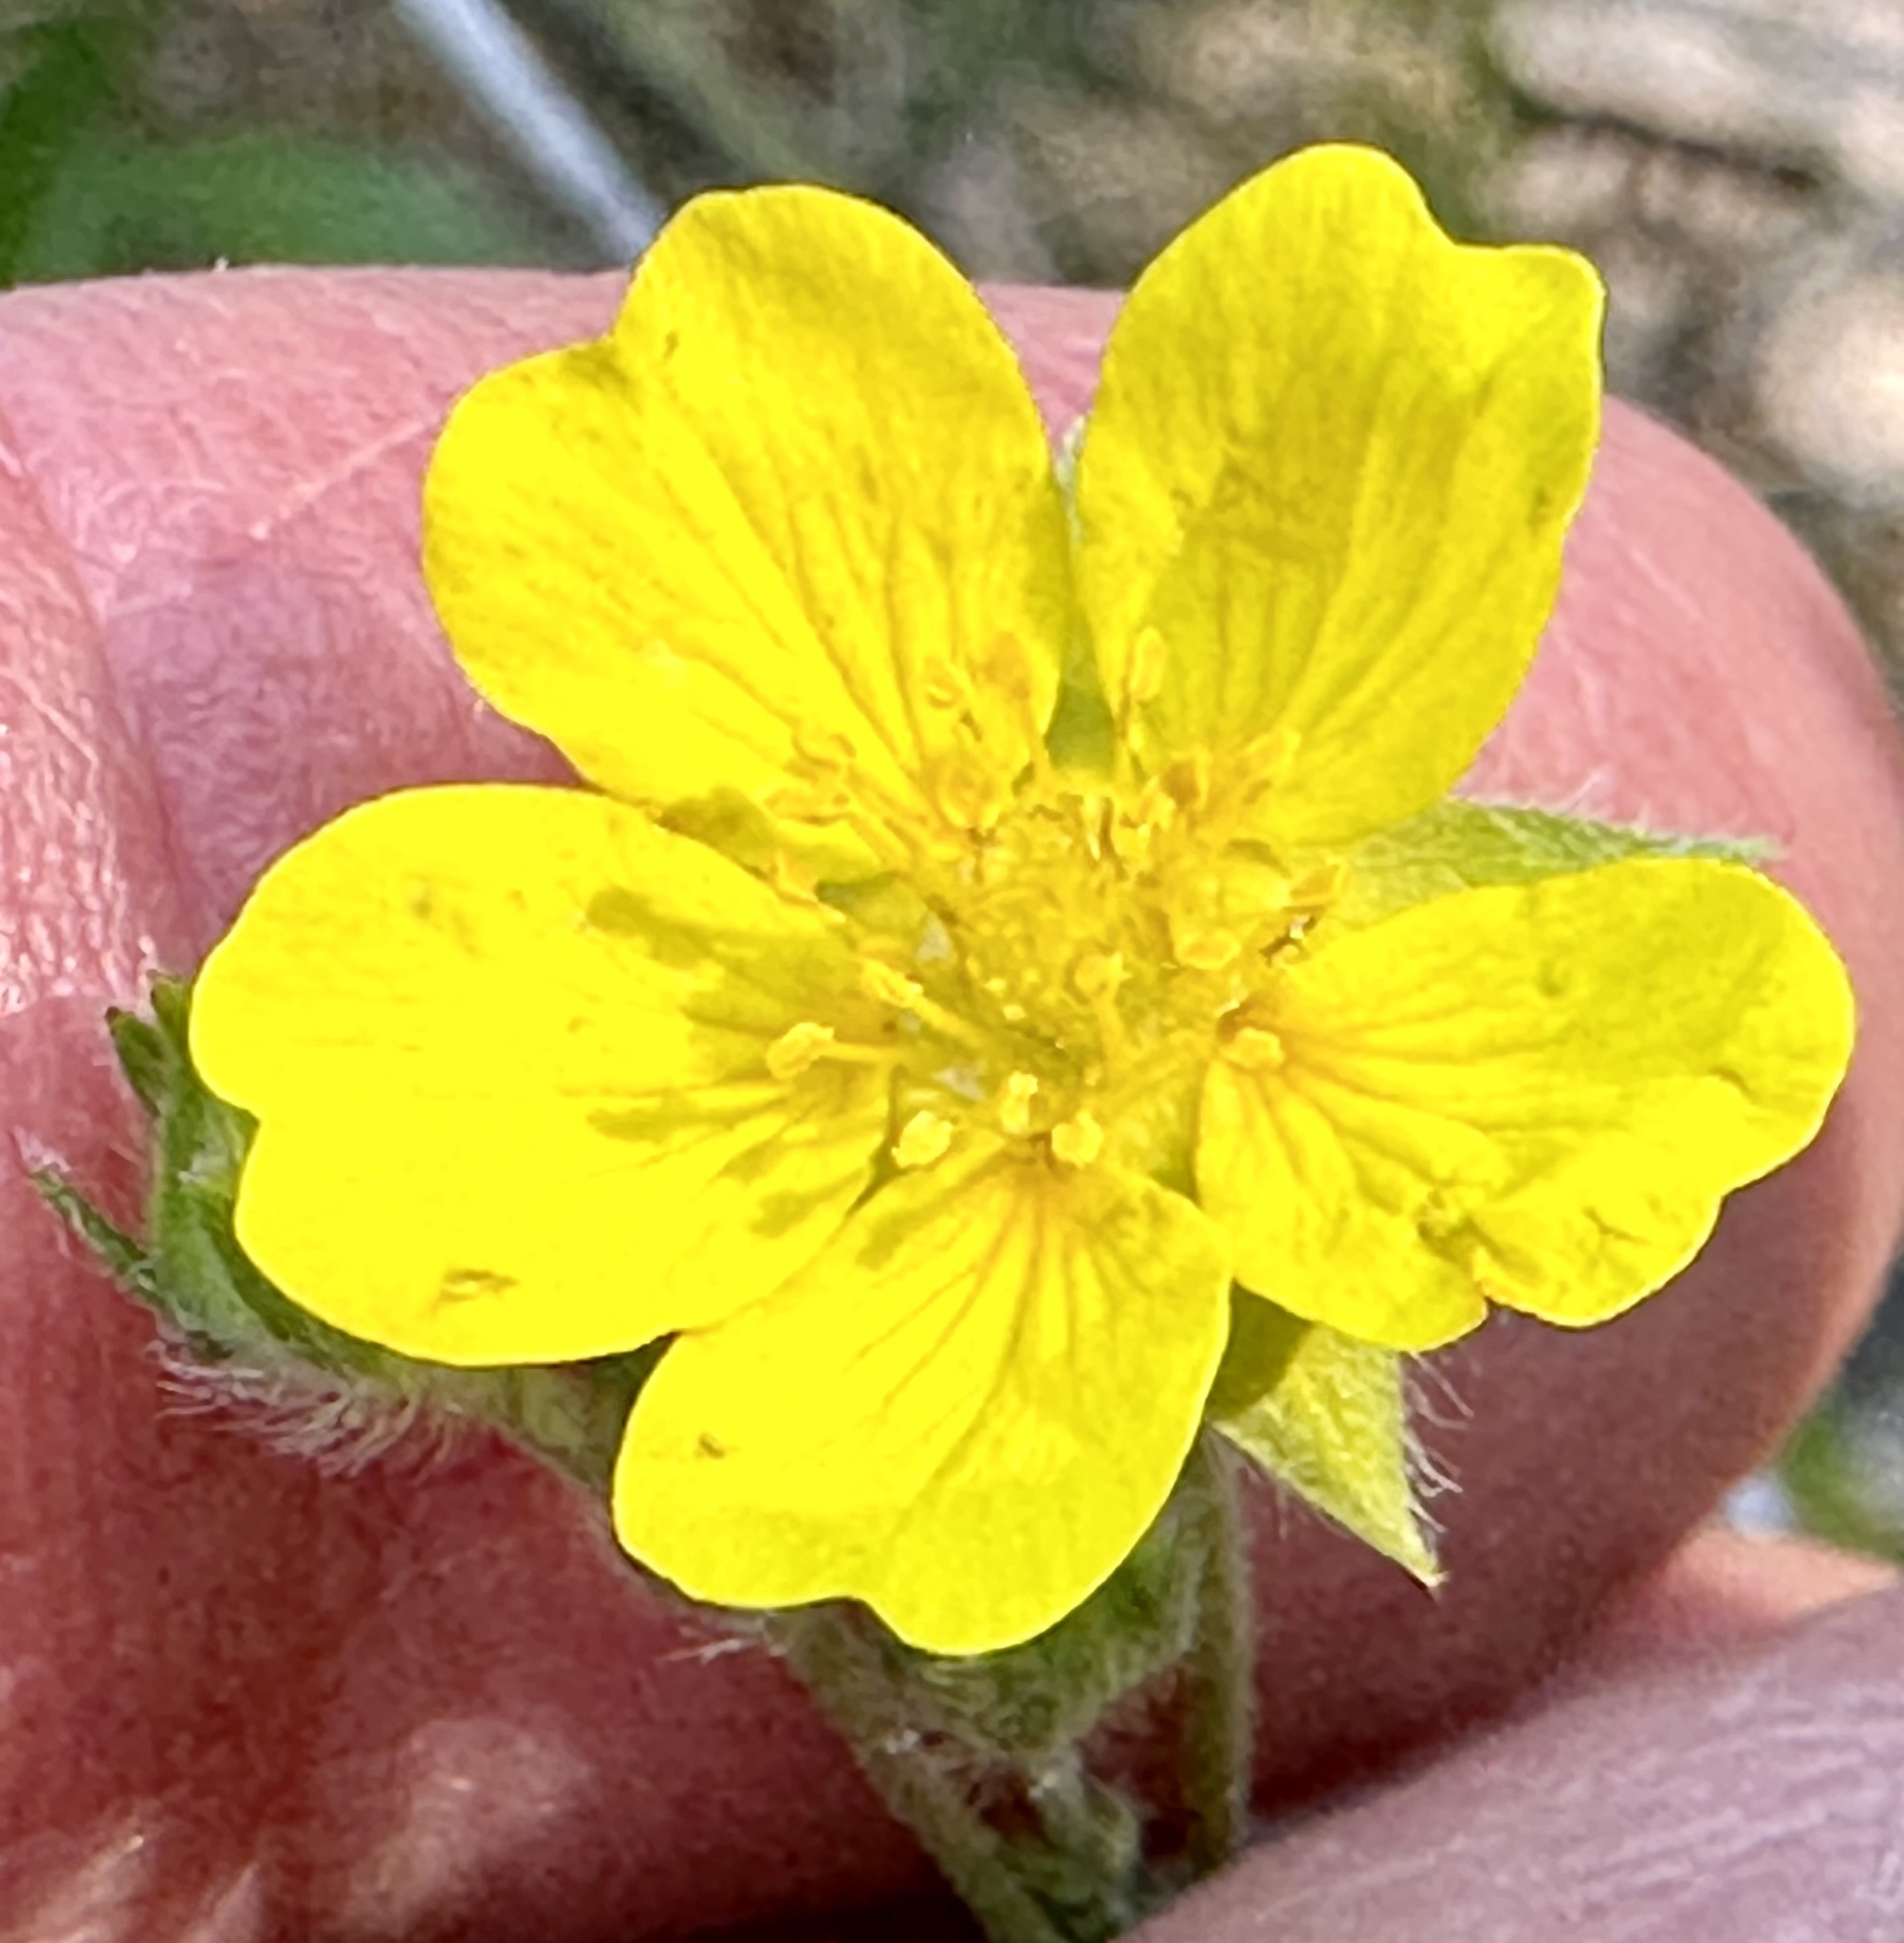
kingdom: Plantae
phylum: Tracheophyta
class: Magnoliopsida
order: Rosales
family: Rosaceae
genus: Potentilla
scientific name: Potentilla gracilis
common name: Graceful cinquefoil
